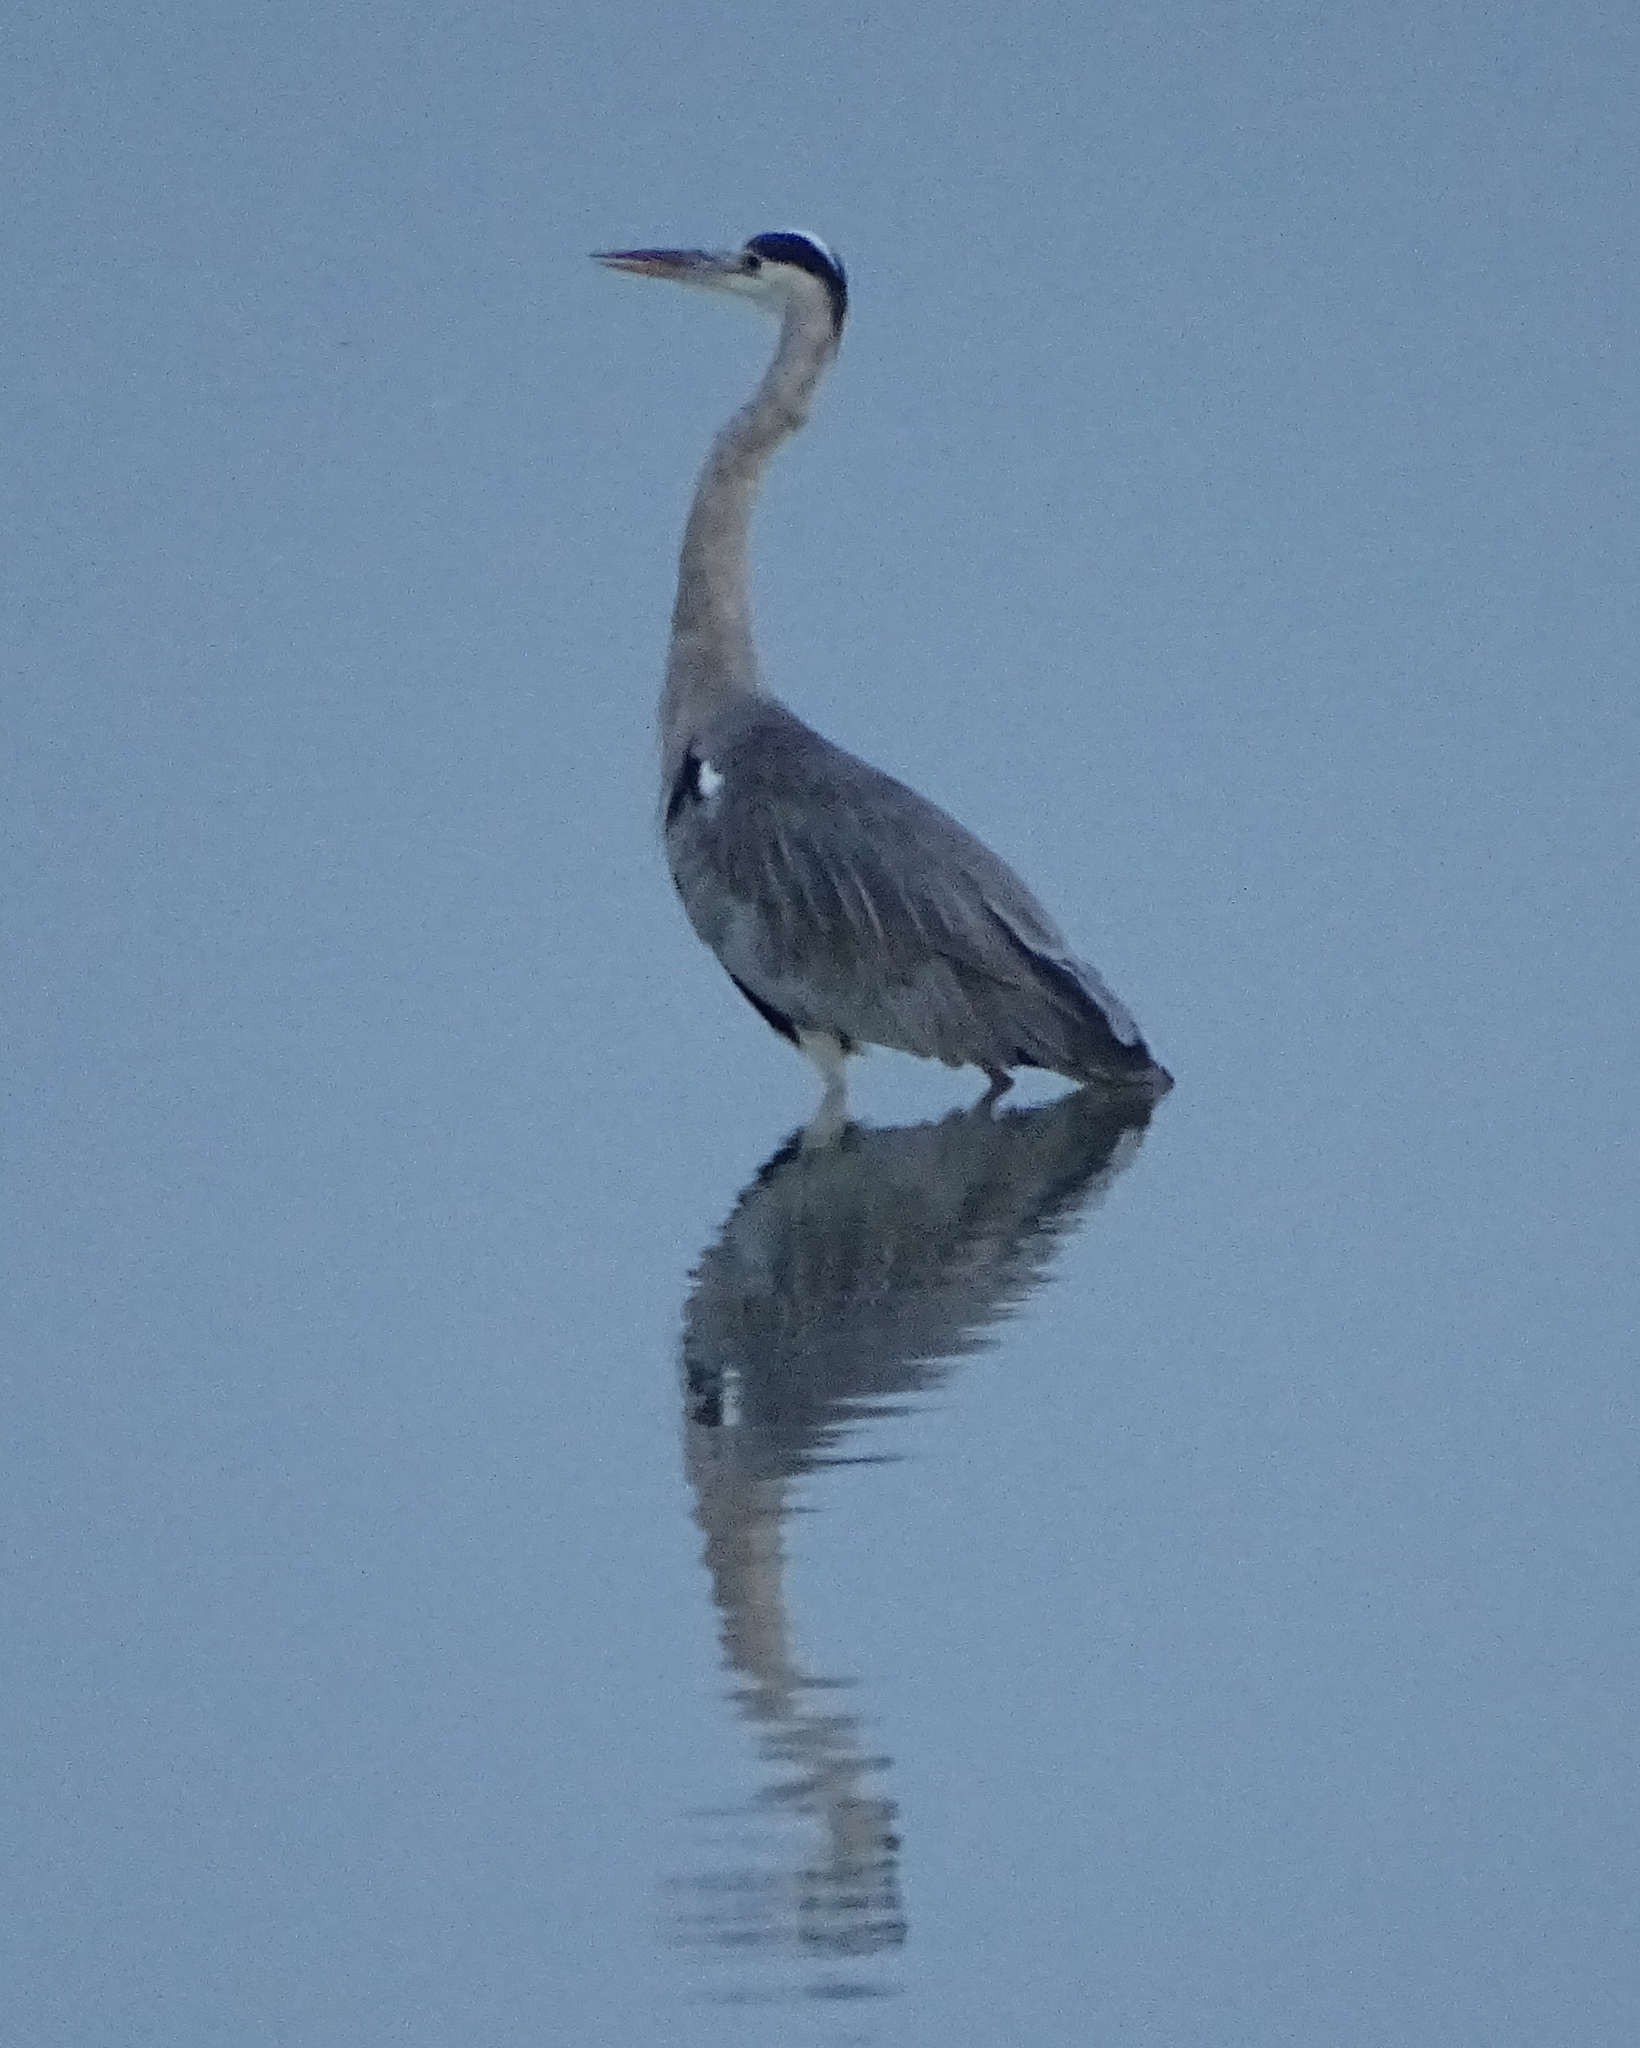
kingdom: Animalia
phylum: Chordata
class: Aves
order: Pelecaniformes
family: Ardeidae
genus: Ardea
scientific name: Ardea cinerea
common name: Grey heron
